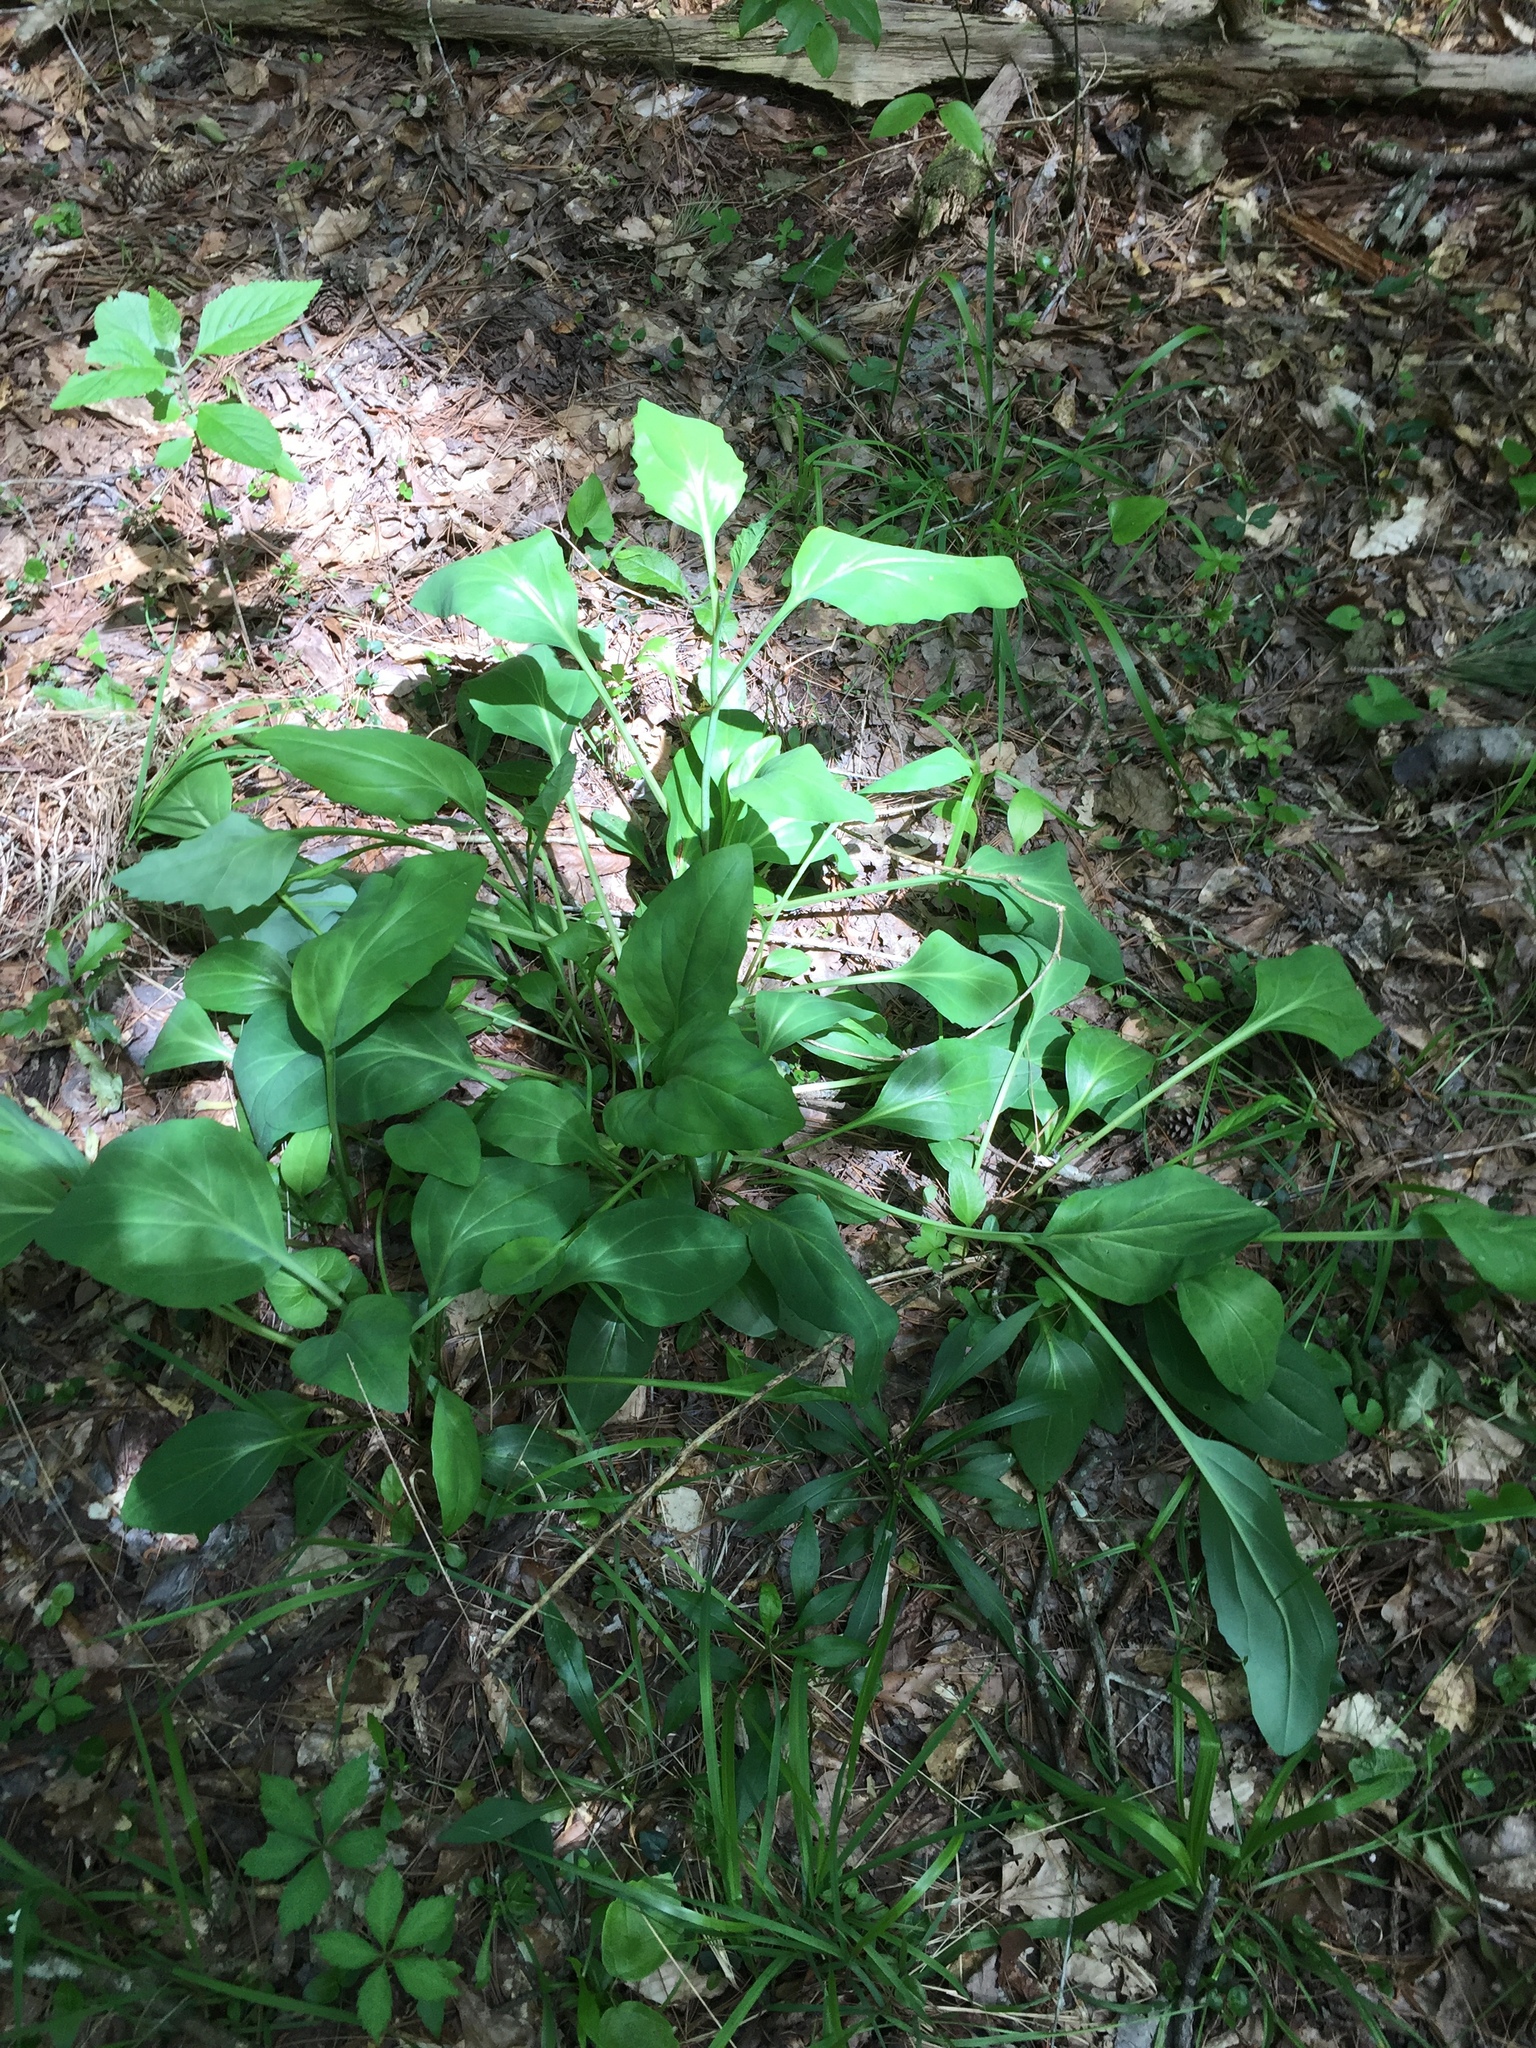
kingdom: Plantae
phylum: Tracheophyta
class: Magnoliopsida
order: Asterales
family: Asteraceae
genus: Arnoglossum
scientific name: Arnoglossum ovatum
